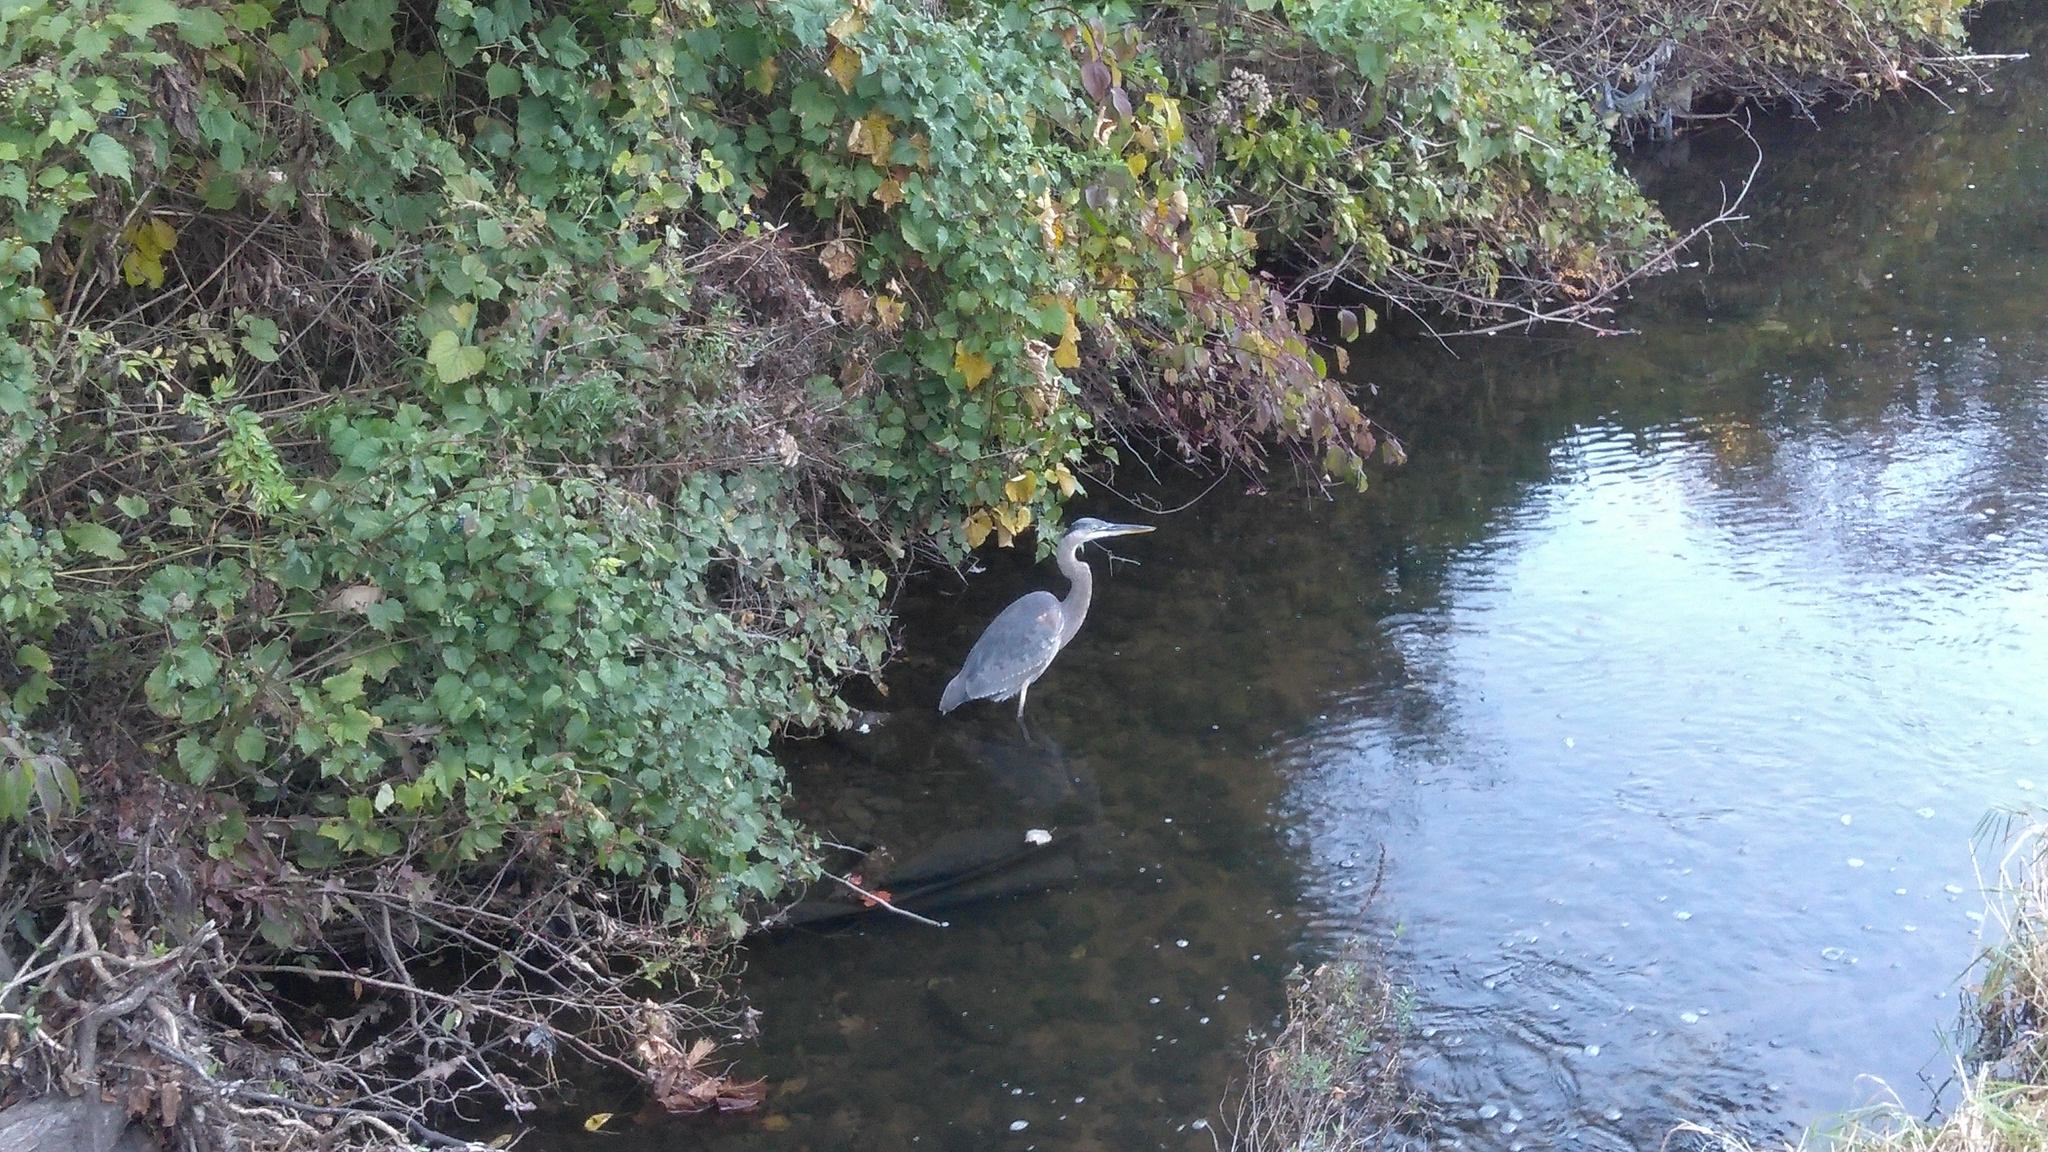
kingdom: Animalia
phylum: Chordata
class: Aves
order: Pelecaniformes
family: Ardeidae
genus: Ardea
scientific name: Ardea herodias
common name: Great blue heron
